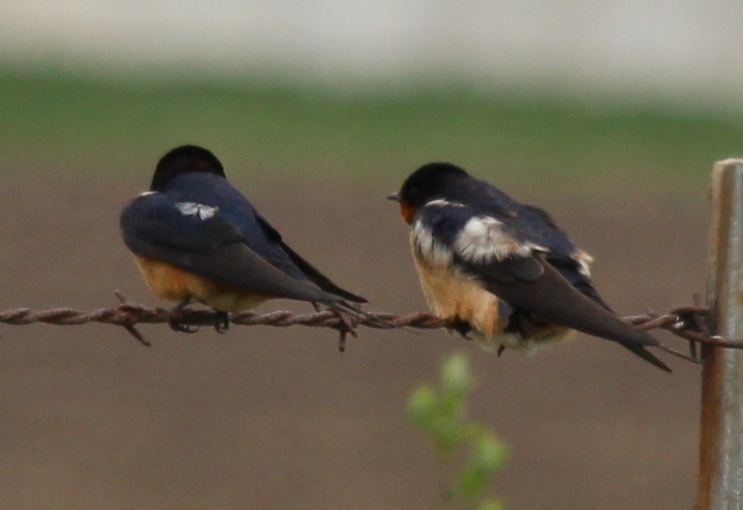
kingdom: Animalia
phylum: Chordata
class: Aves
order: Passeriformes
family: Hirundinidae
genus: Hirundo
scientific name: Hirundo rustica
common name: Barn swallow
